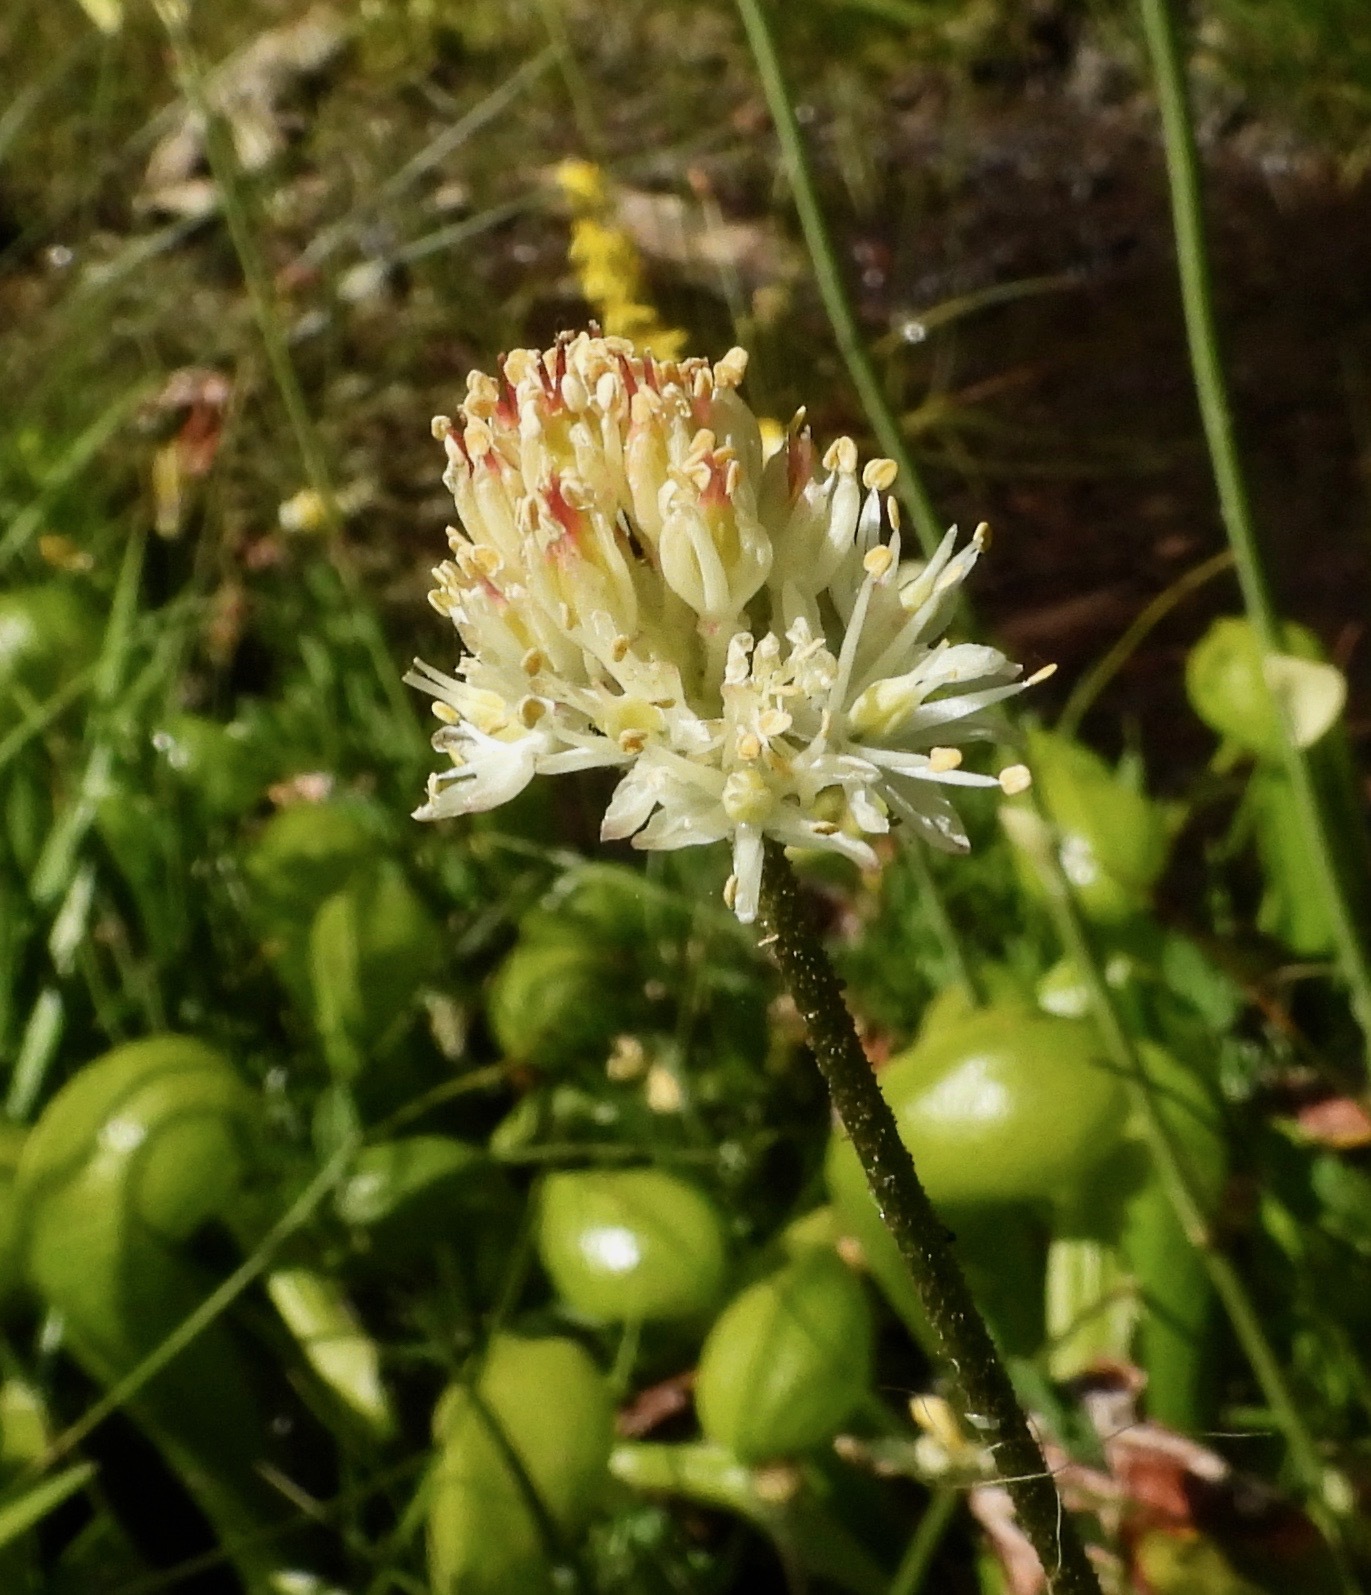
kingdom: Plantae
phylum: Tracheophyta
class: Liliopsida
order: Alismatales
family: Tofieldiaceae
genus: Triantha
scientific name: Triantha occidentalis
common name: Western false asphodel
